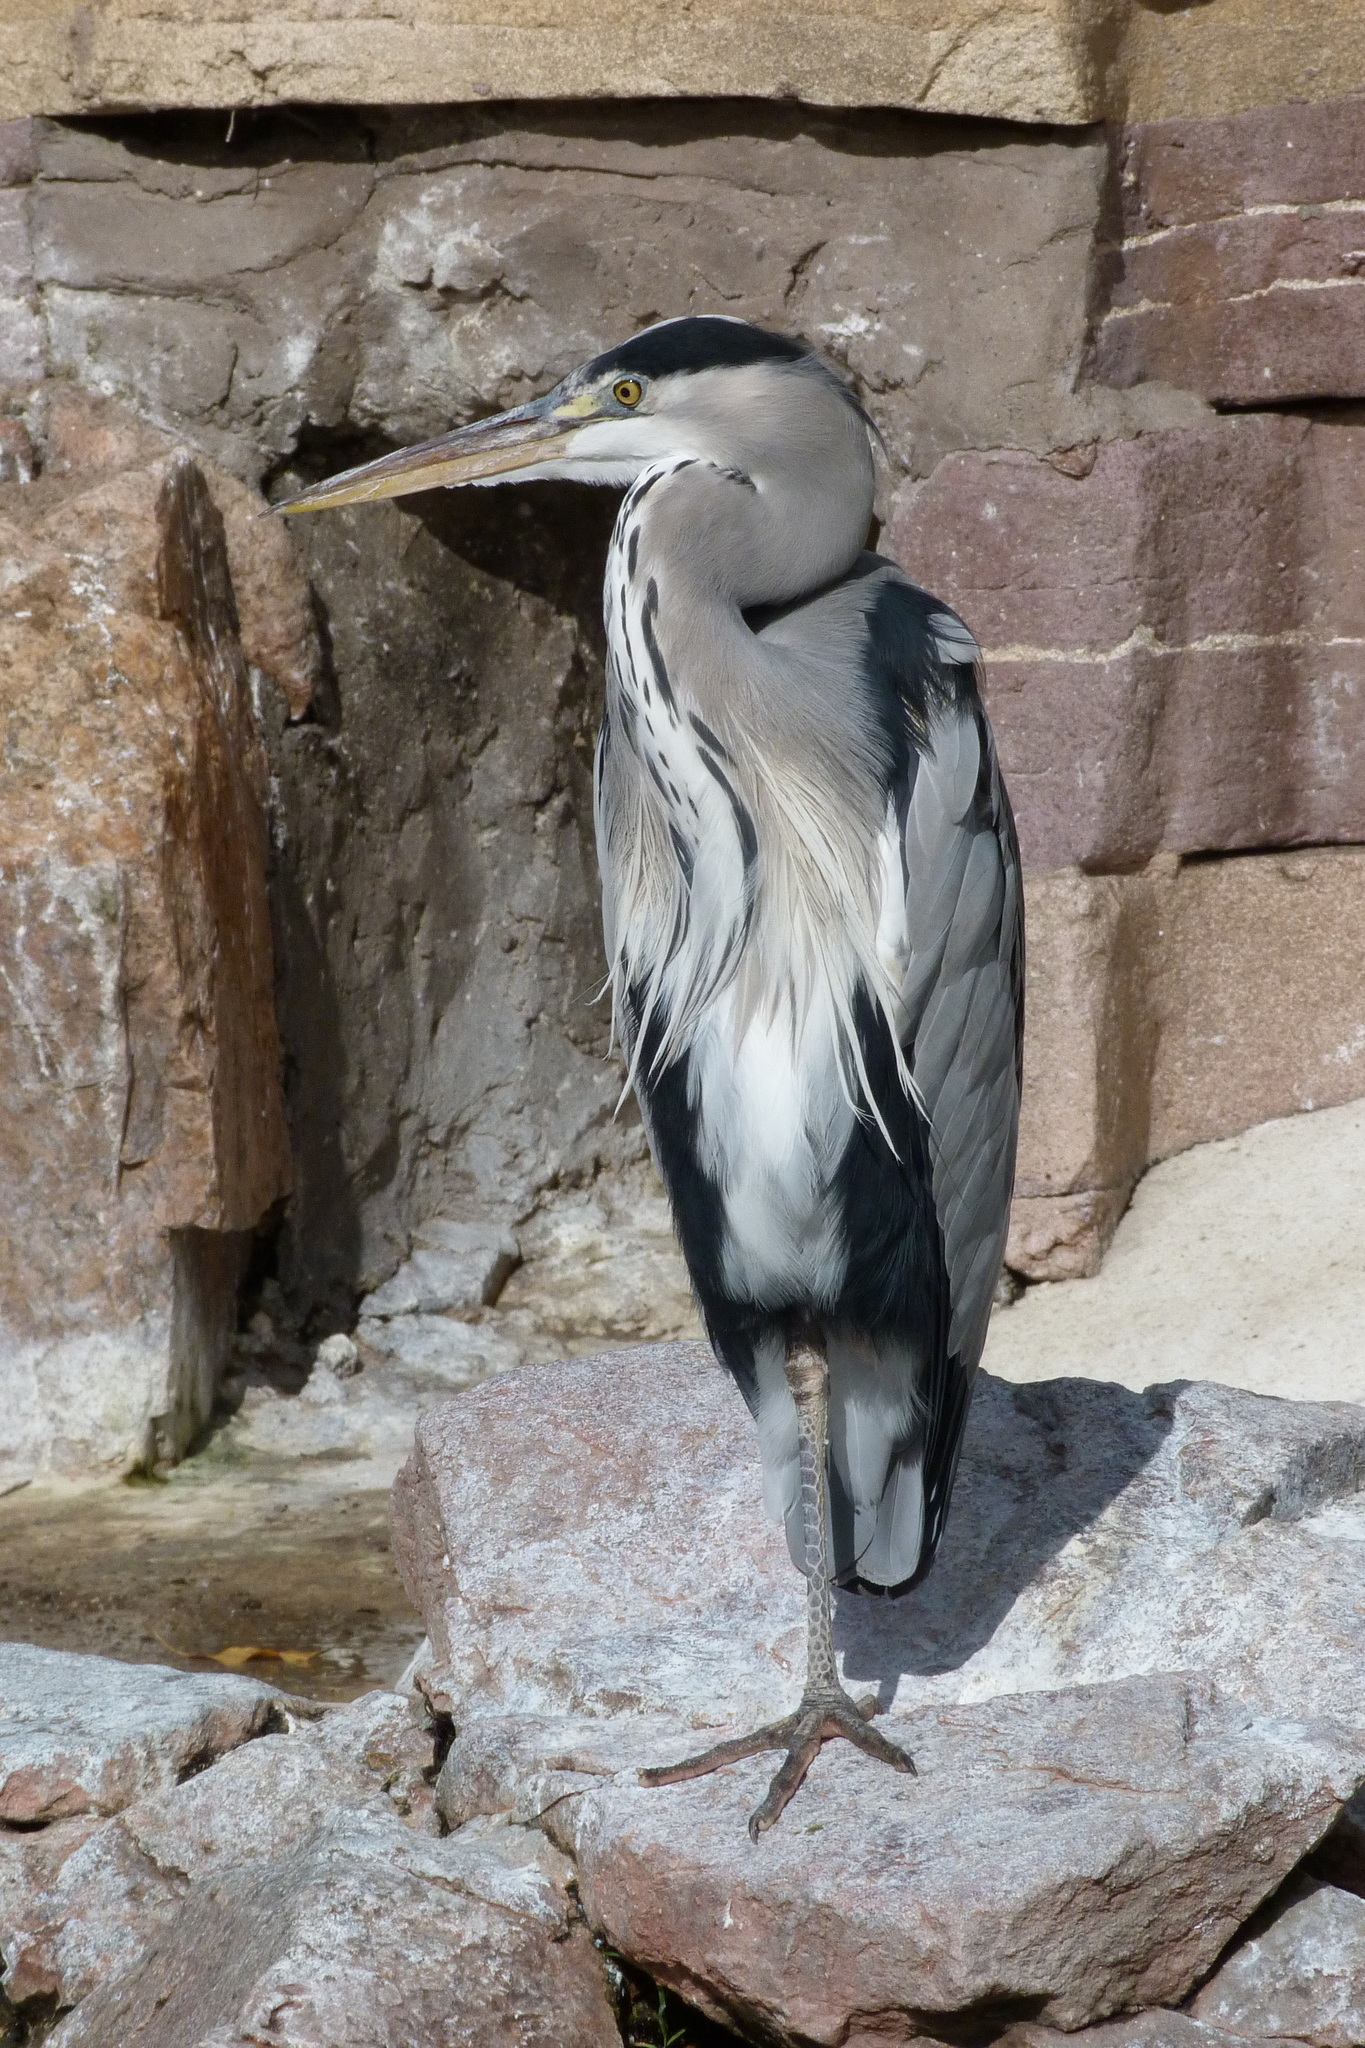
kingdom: Animalia
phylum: Chordata
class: Aves
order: Pelecaniformes
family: Ardeidae
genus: Ardea
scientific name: Ardea cinerea
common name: Grey heron
